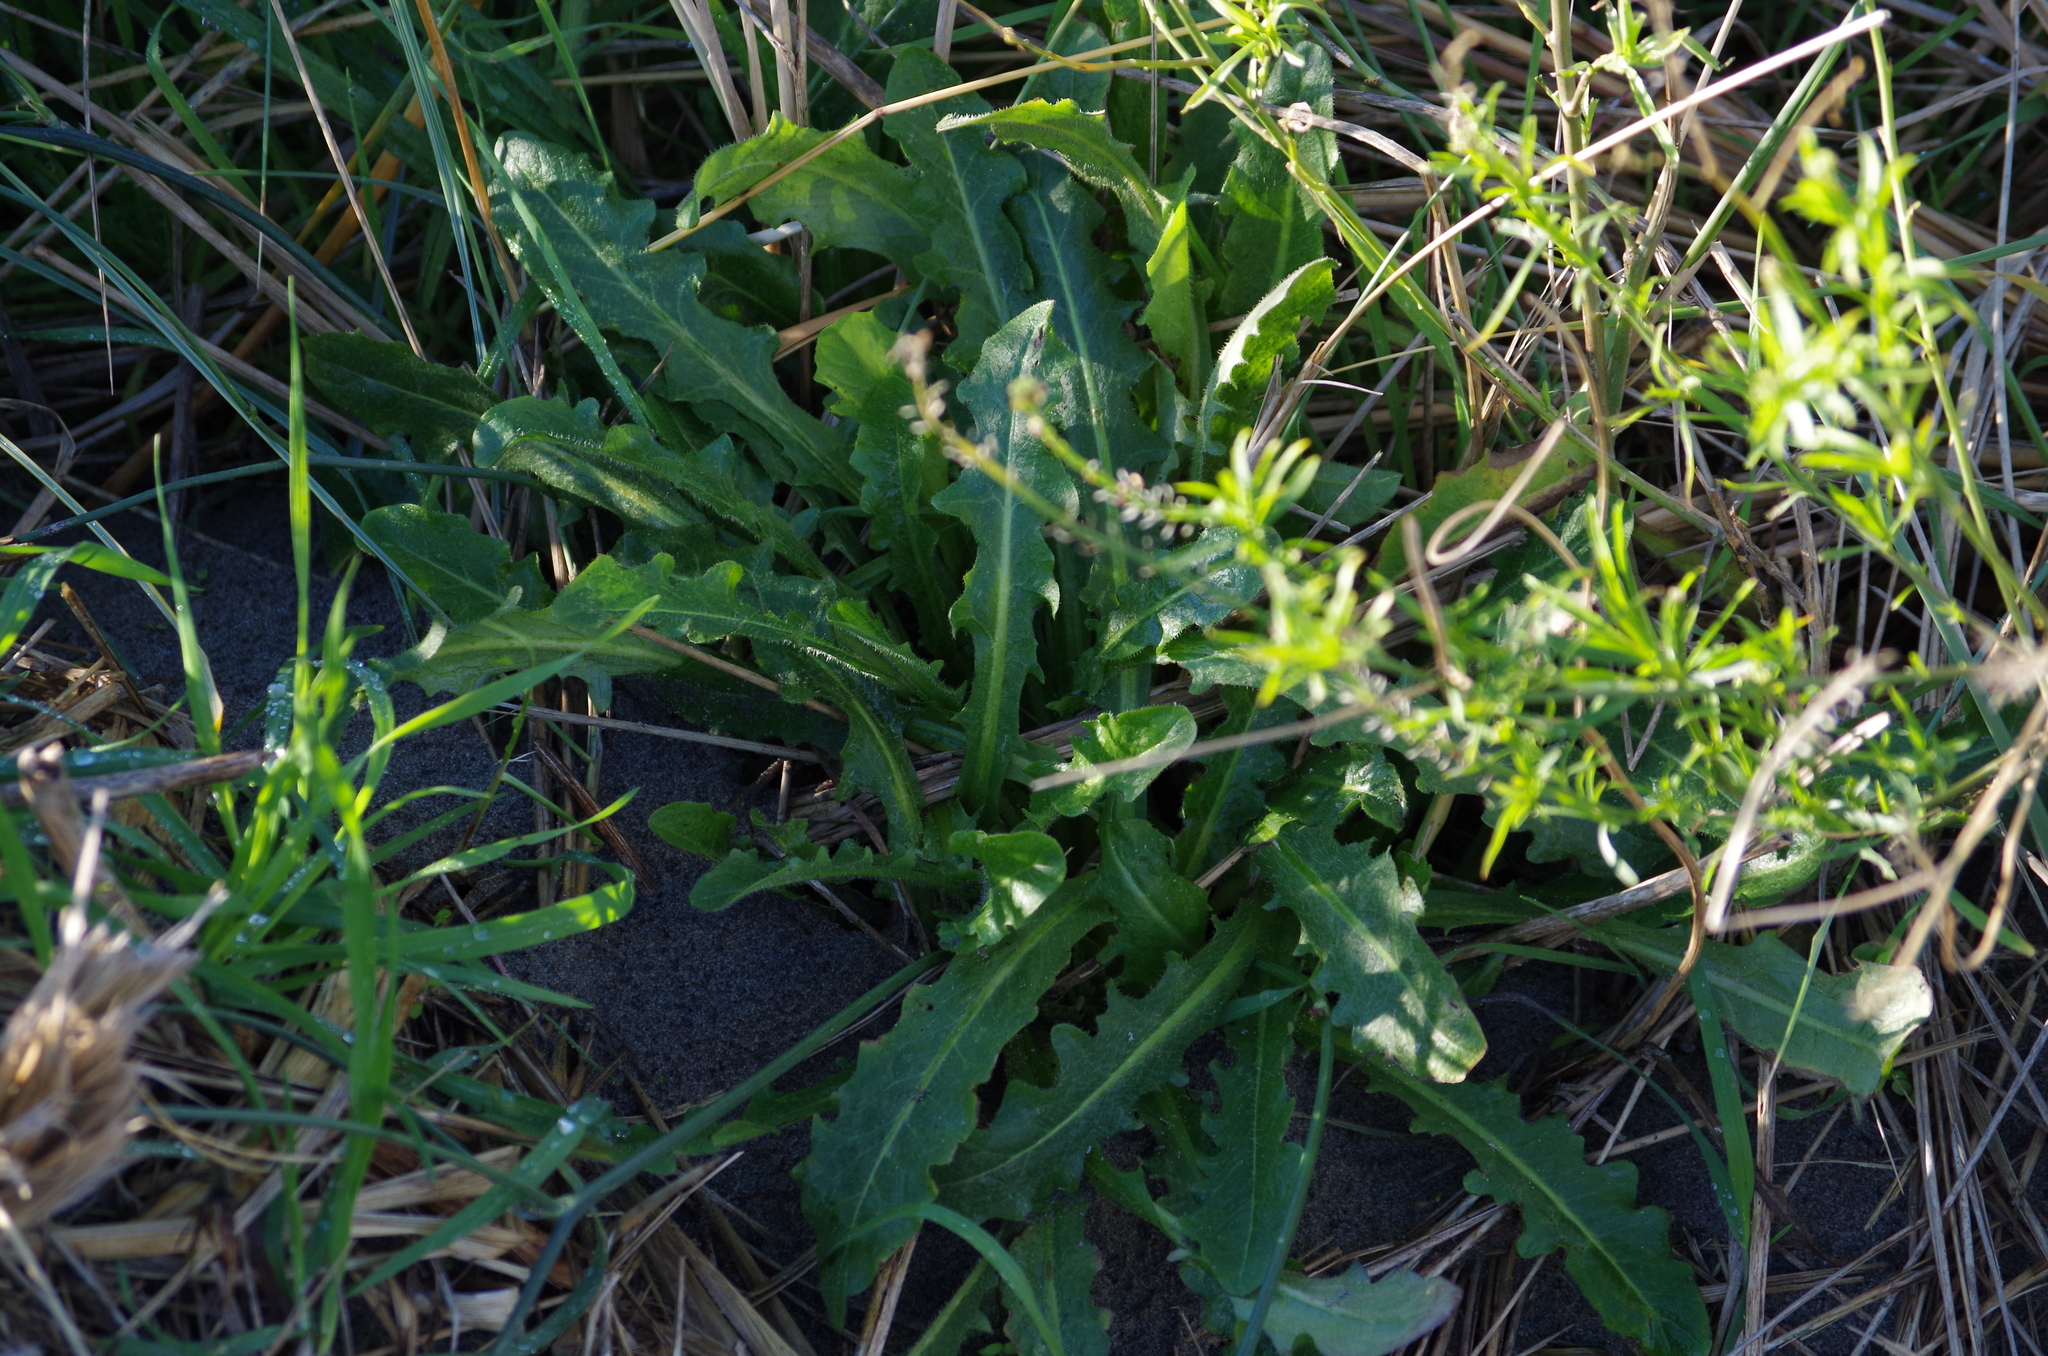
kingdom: Plantae
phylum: Tracheophyta
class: Magnoliopsida
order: Asterales
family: Asteraceae
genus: Hypochaeris
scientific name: Hypochaeris radicata
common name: Flatweed
